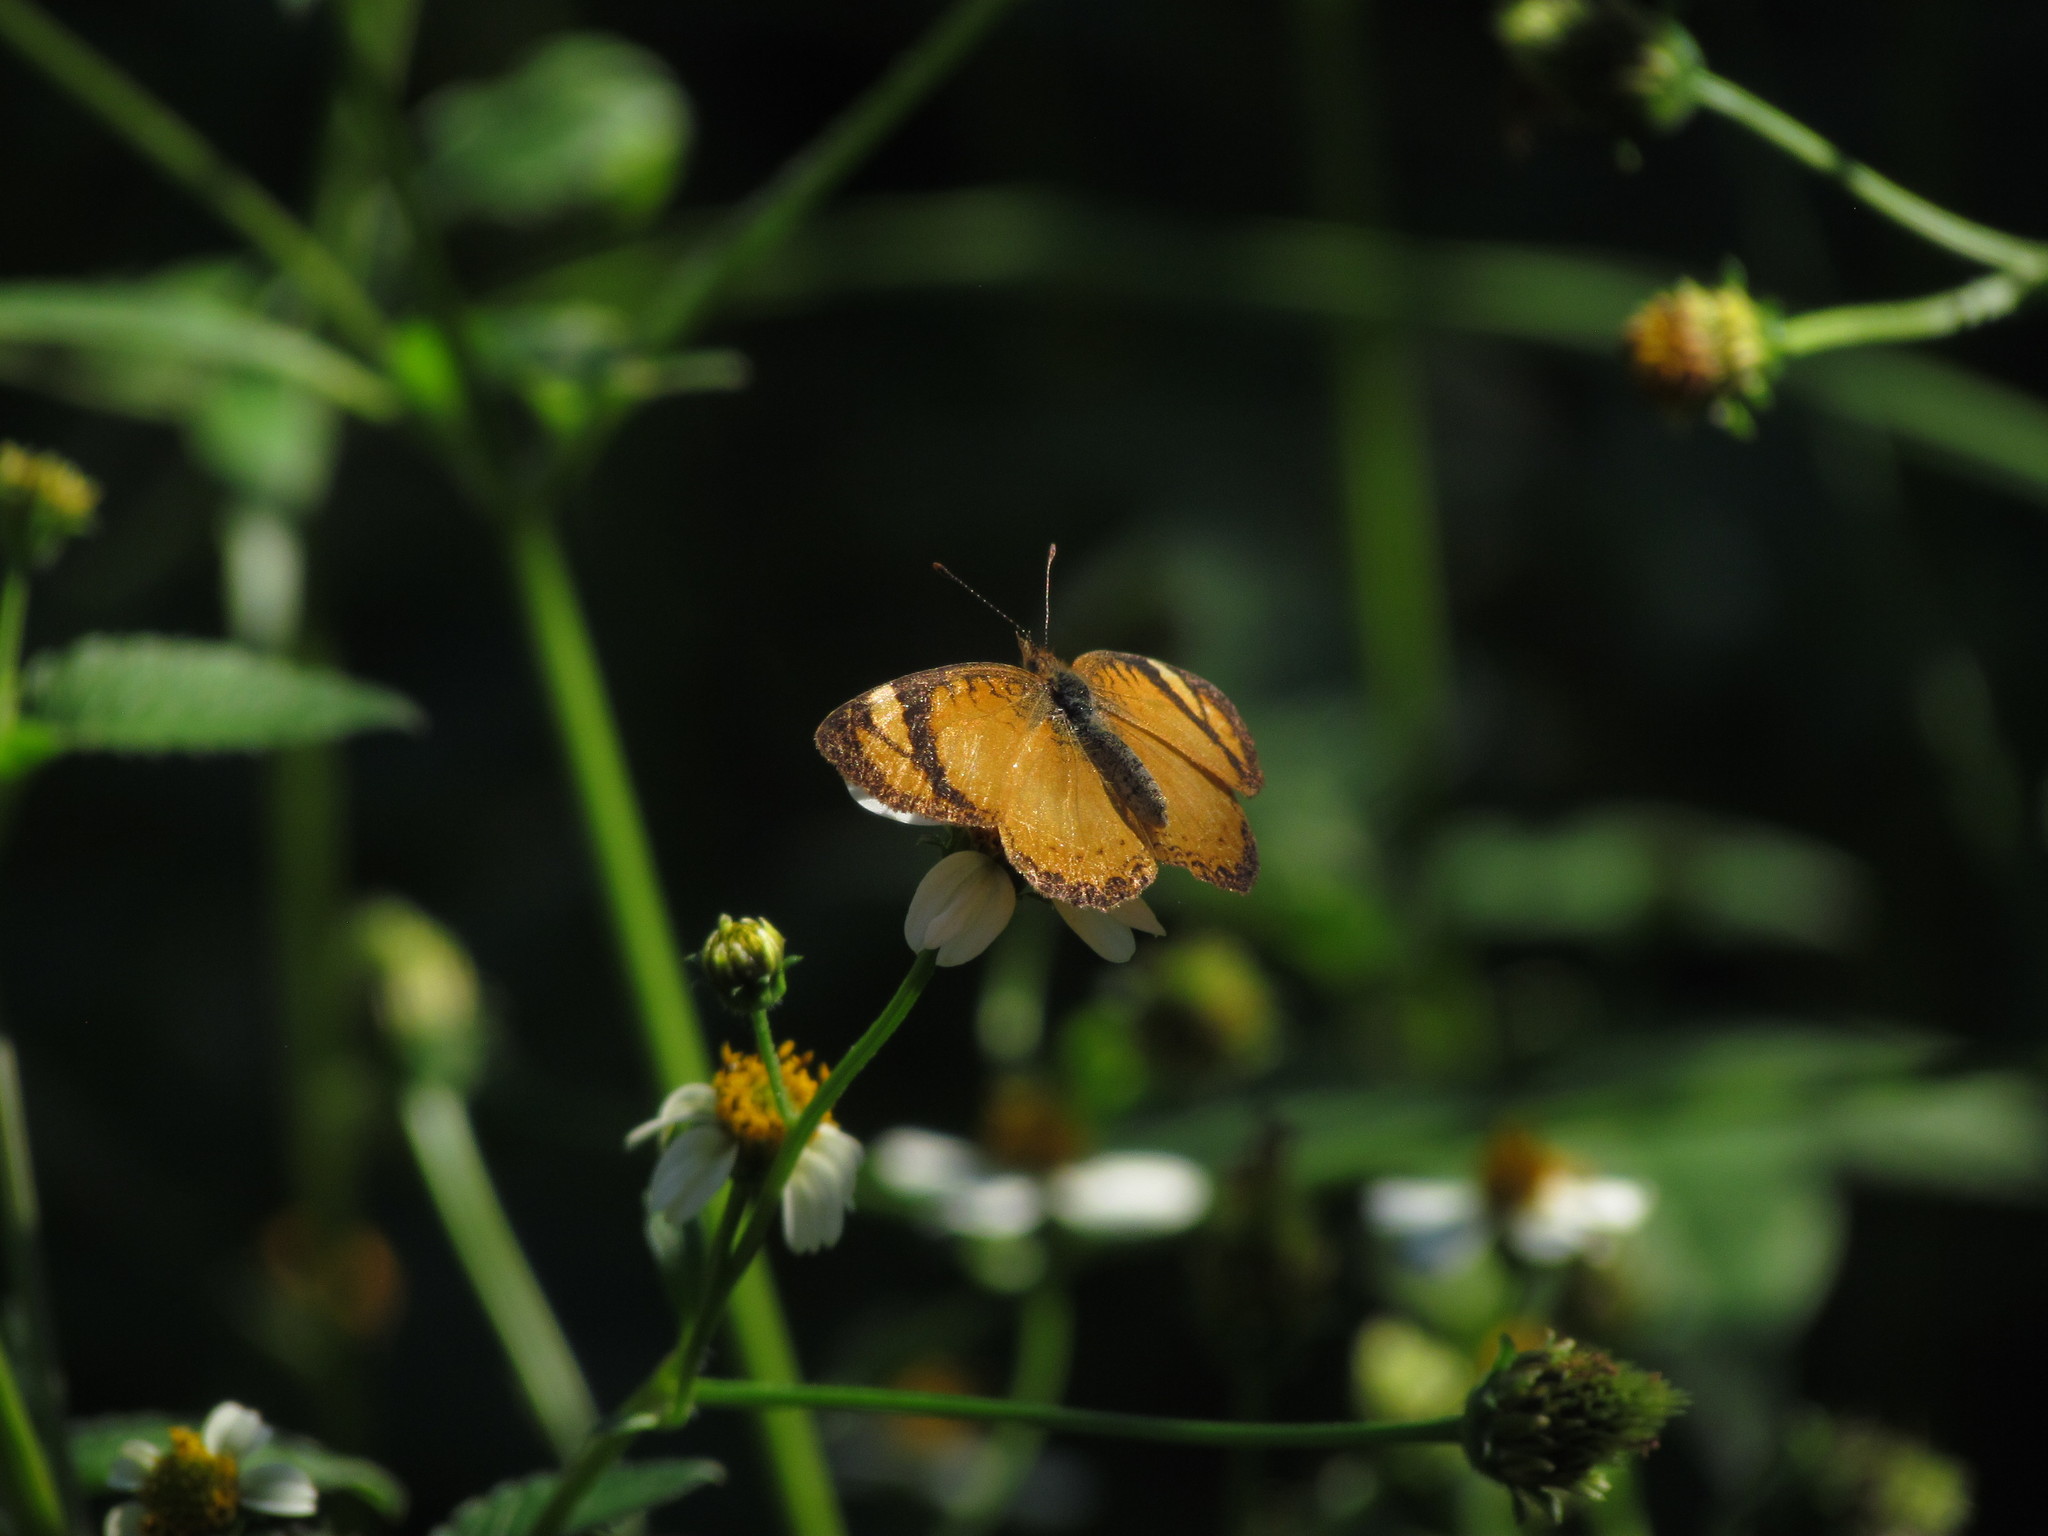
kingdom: Animalia
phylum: Arthropoda
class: Insecta
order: Lepidoptera
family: Nymphalidae
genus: Tegosa
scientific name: Tegosa claudina
